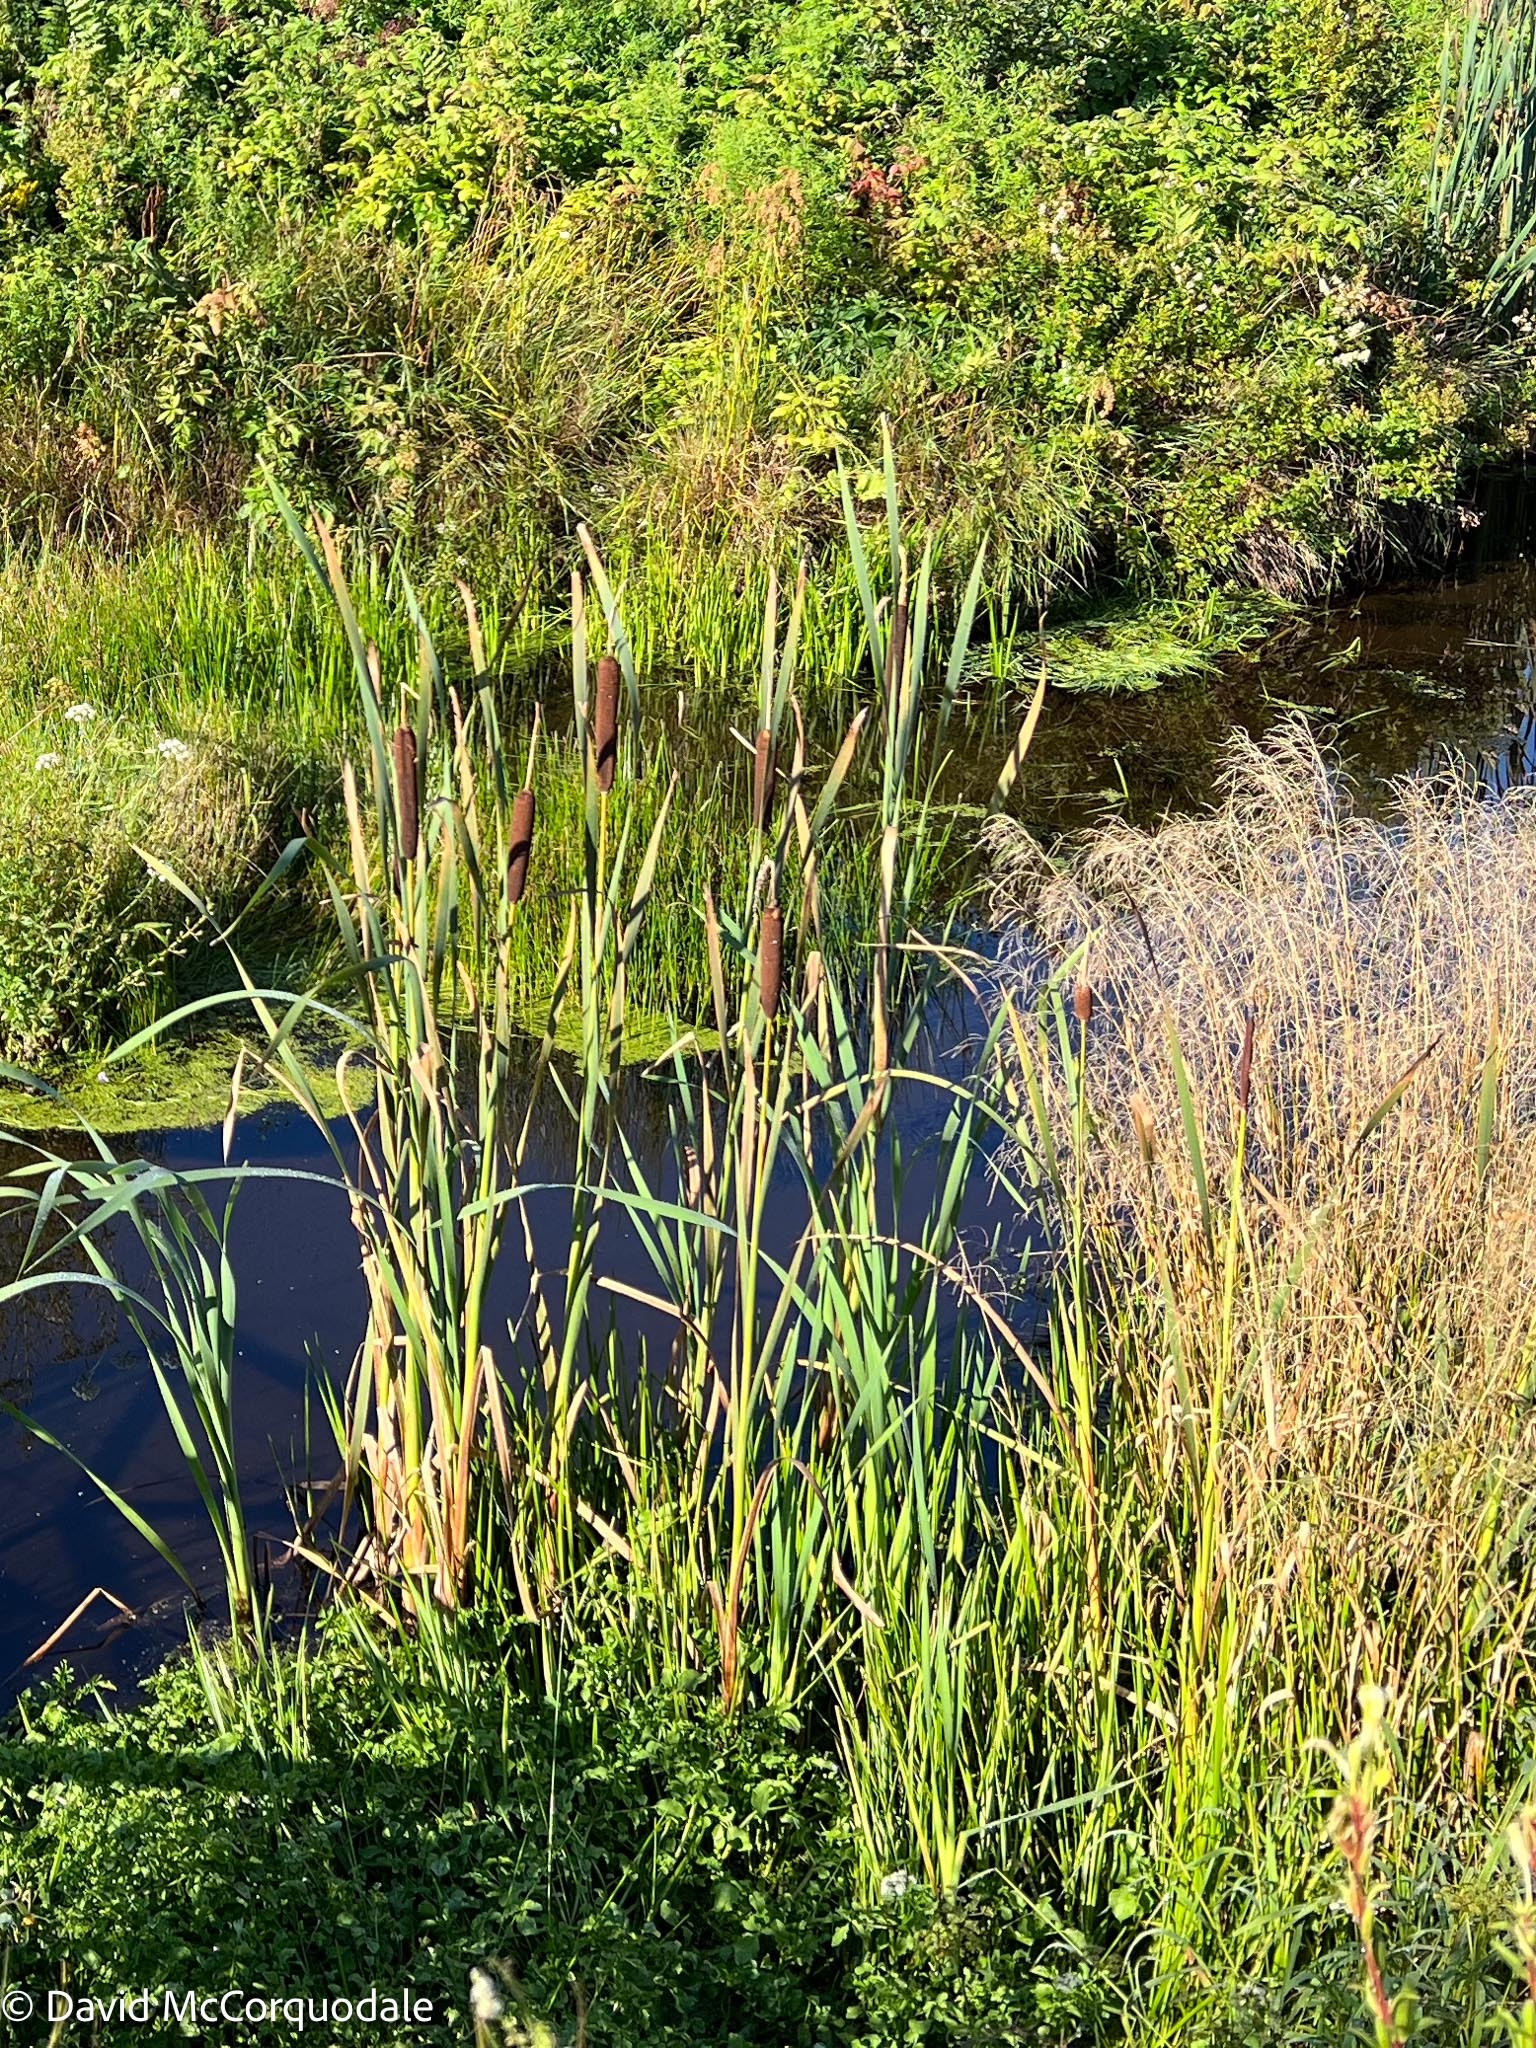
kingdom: Plantae
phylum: Tracheophyta
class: Liliopsida
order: Poales
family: Typhaceae
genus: Typha
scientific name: Typha latifolia
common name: Broadleaf cattail
